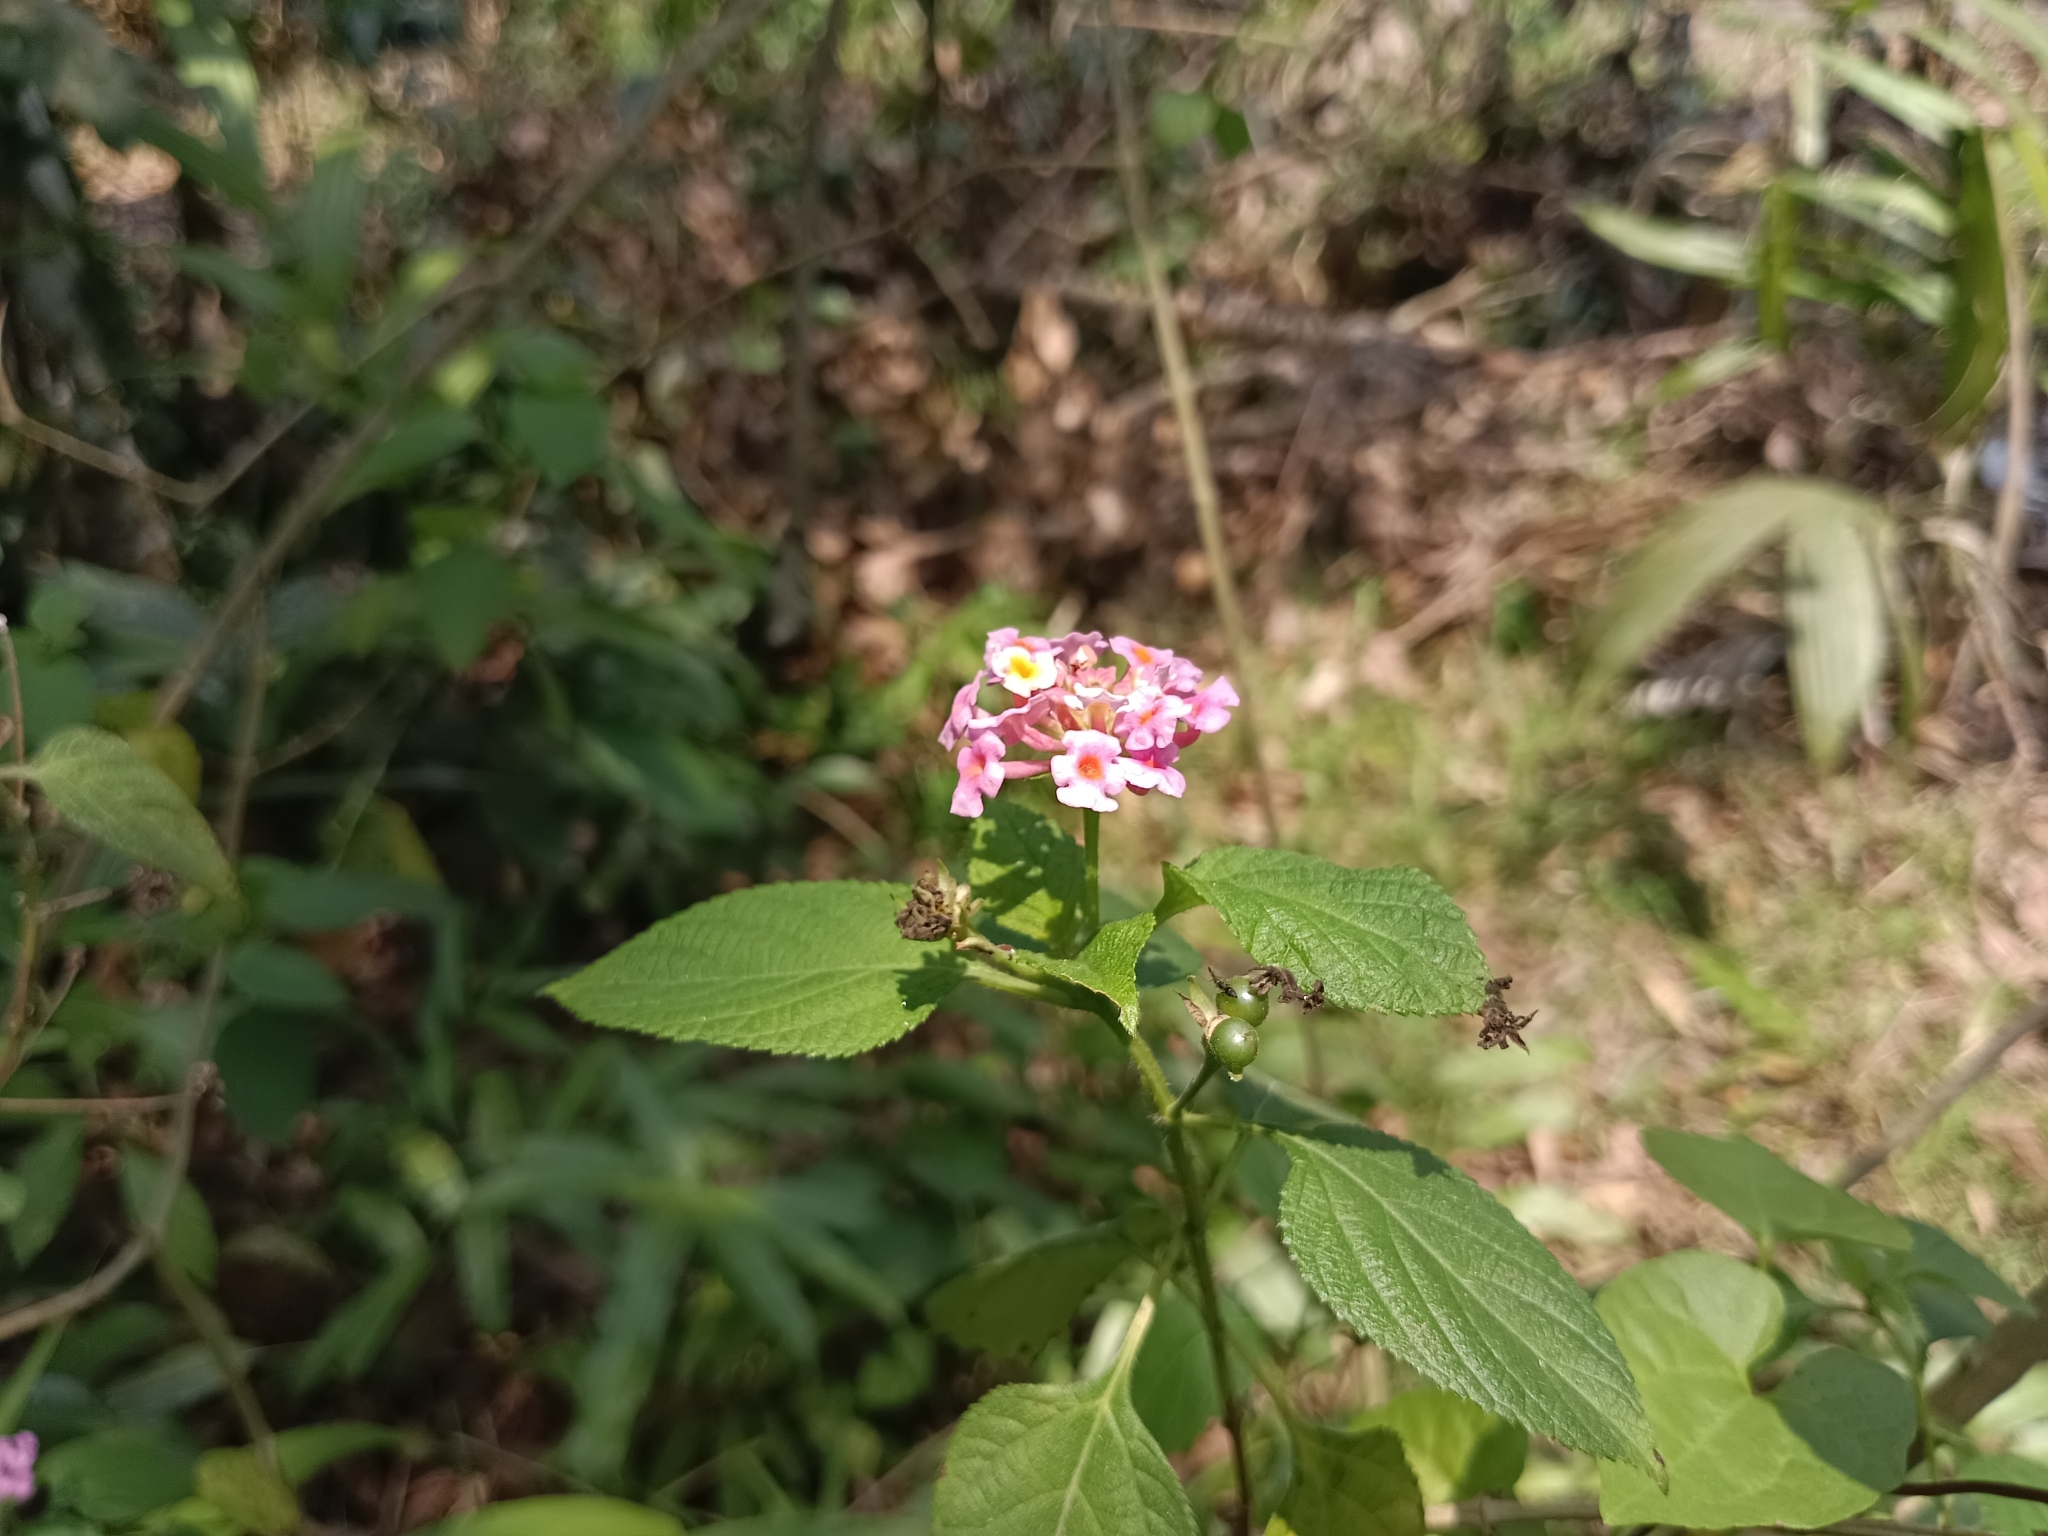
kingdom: Plantae
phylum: Tracheophyta
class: Magnoliopsida
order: Lamiales
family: Verbenaceae
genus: Lantana
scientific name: Lantana camara
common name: Lantana
